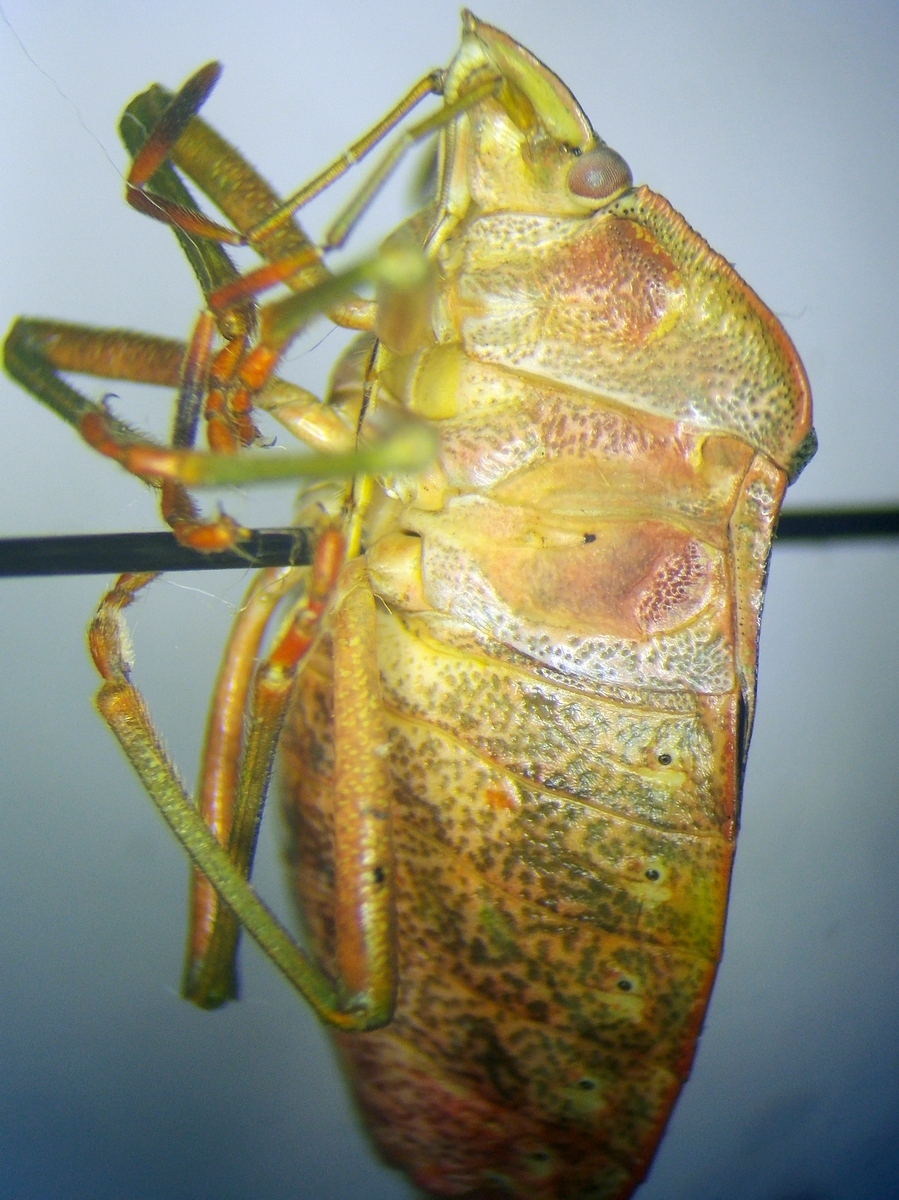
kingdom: Animalia
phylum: Arthropoda
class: Insecta
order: Hemiptera
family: Pentatomidae
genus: Palomena
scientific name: Palomena prasina
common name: Green shieldbug
